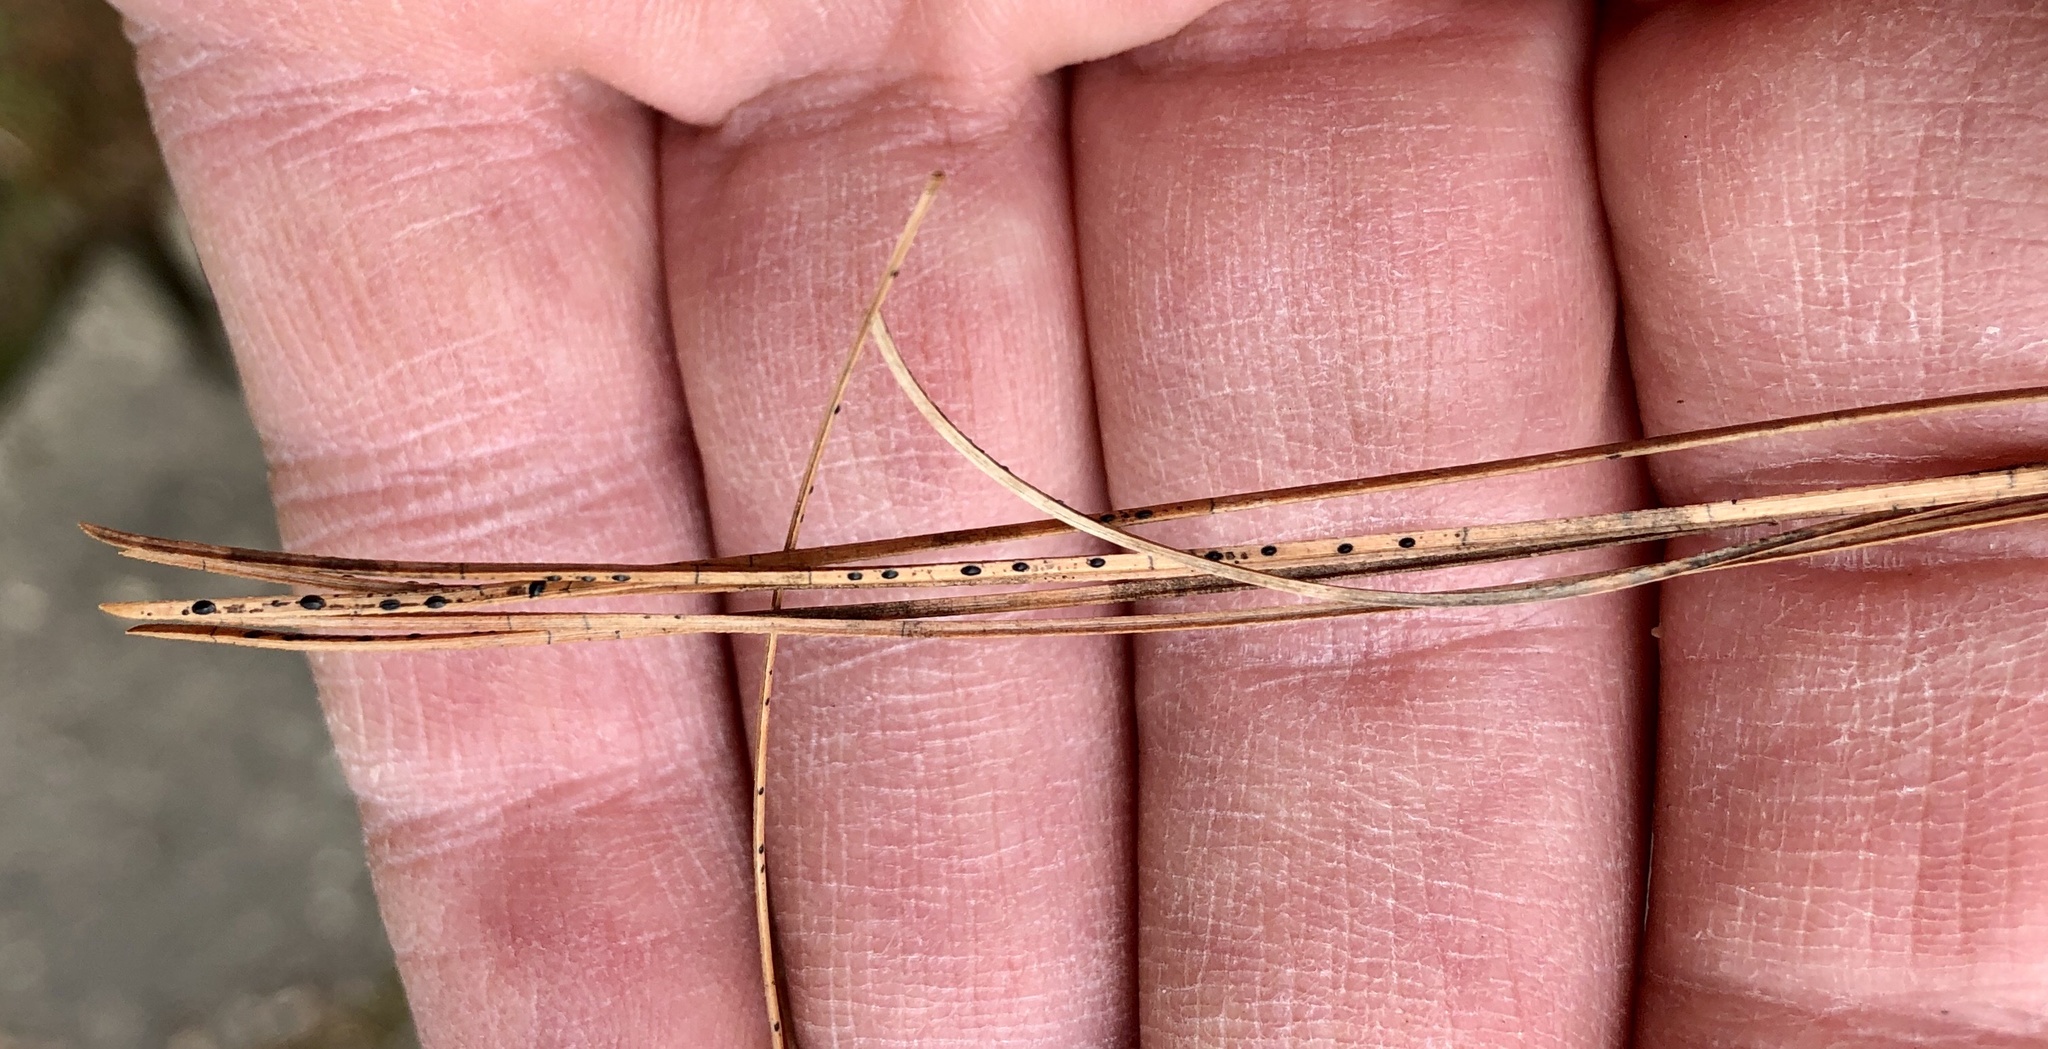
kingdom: Fungi
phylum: Ascomycota
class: Leotiomycetes
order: Rhytismatales
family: Rhytismataceae
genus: Lophodermium
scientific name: Lophodermium nitens
